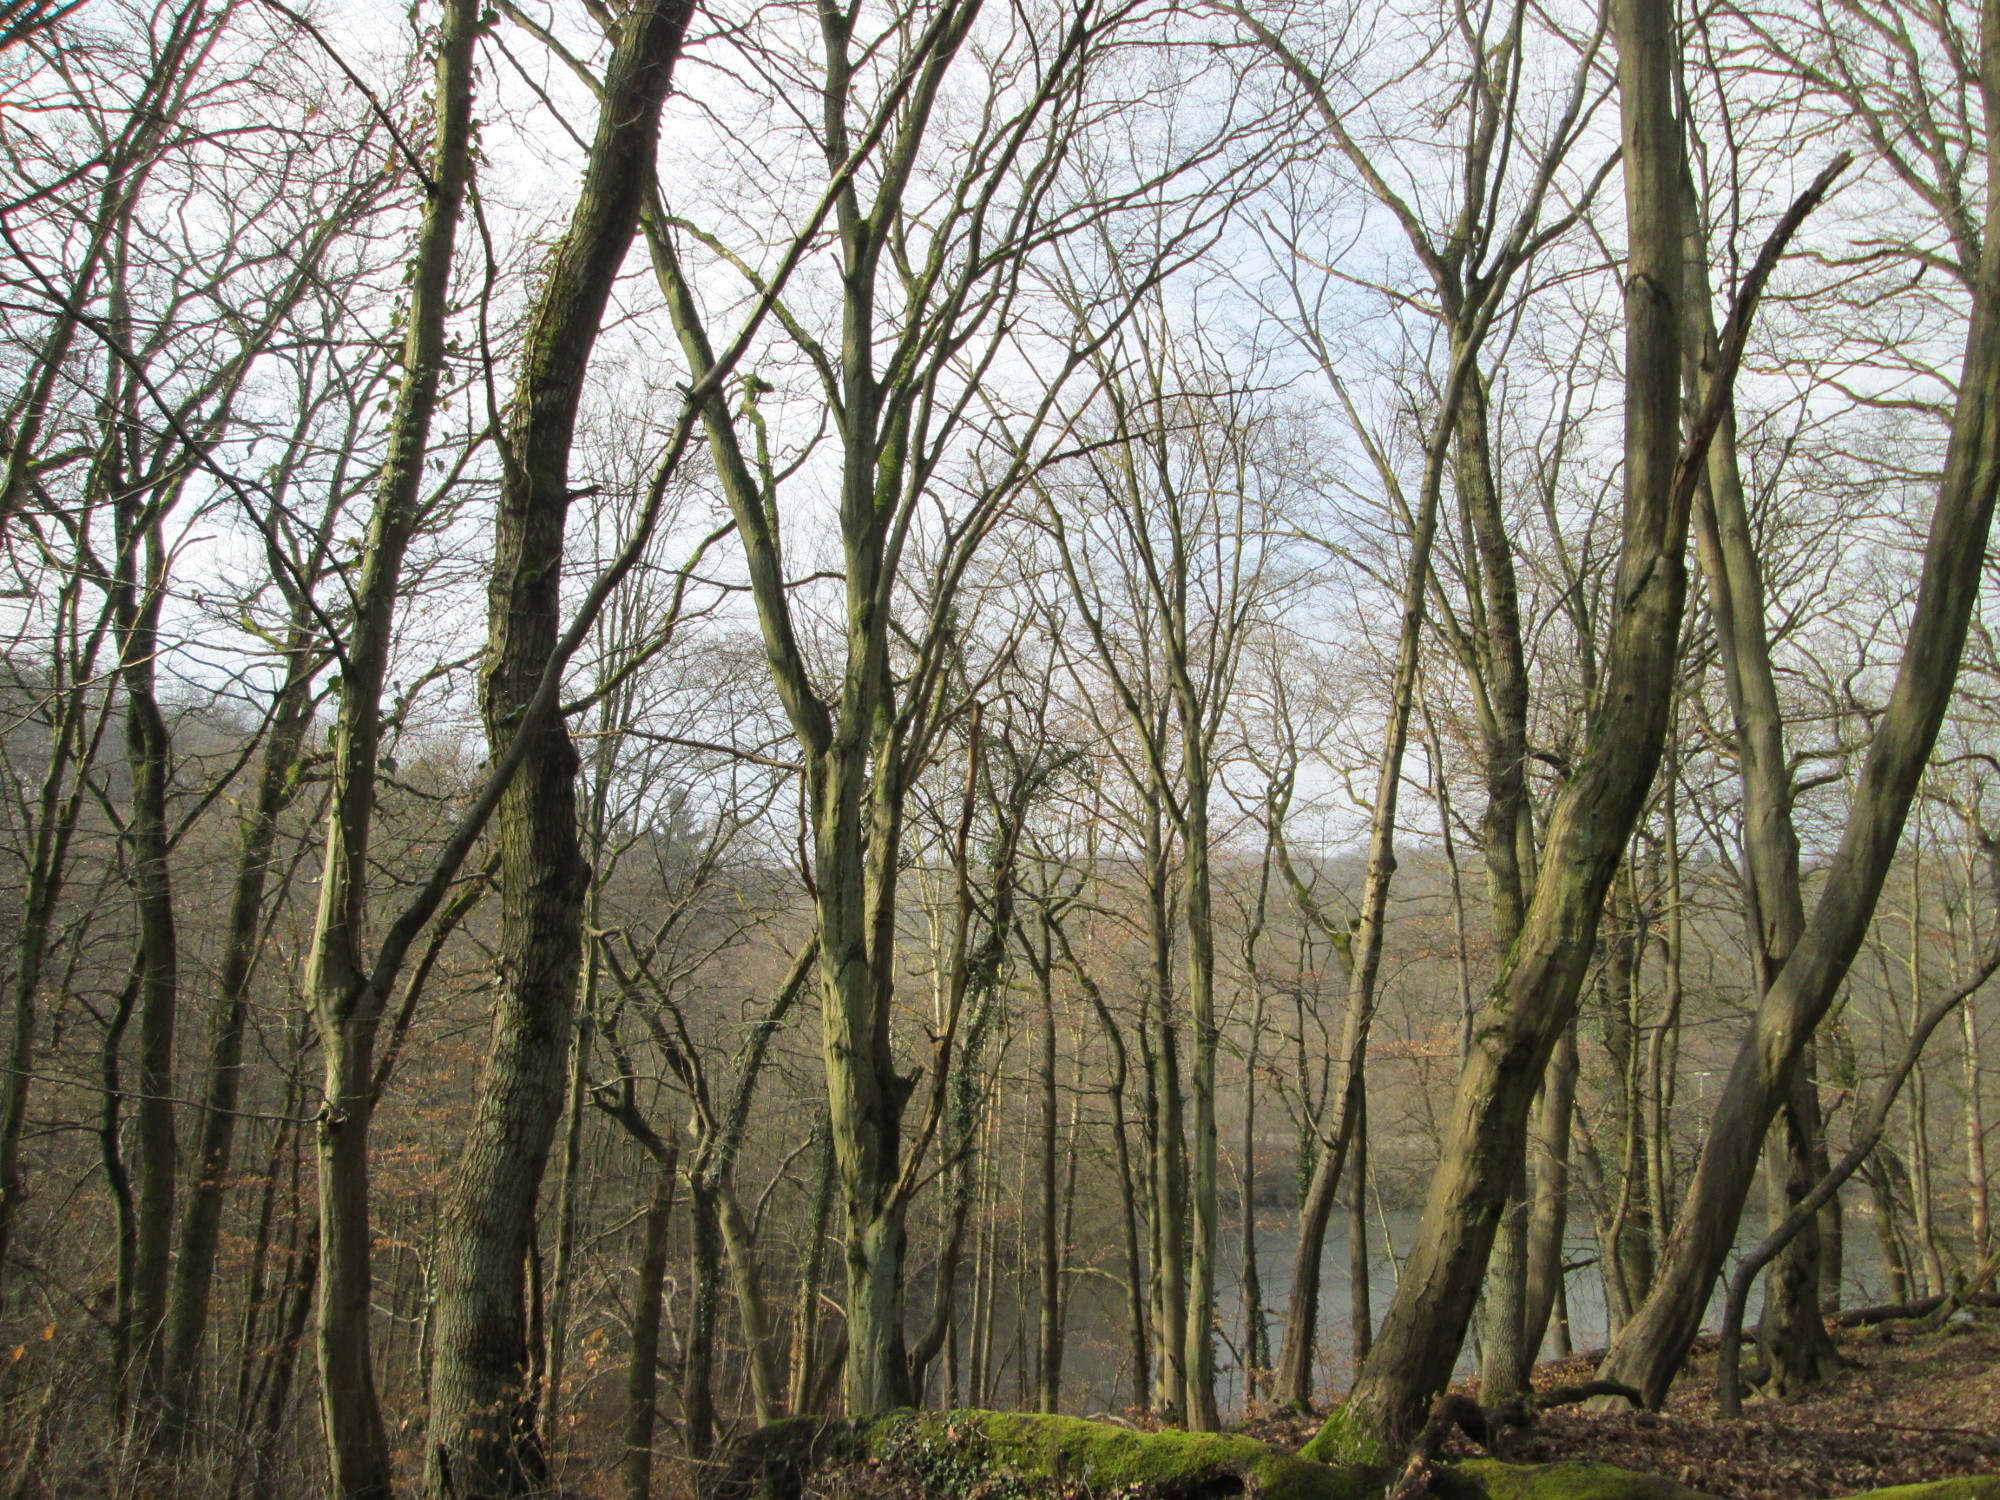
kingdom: Plantae
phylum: Tracheophyta
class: Magnoliopsida
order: Fagales
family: Fagaceae
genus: Fagus
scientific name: Fagus sylvatica
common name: Beech
